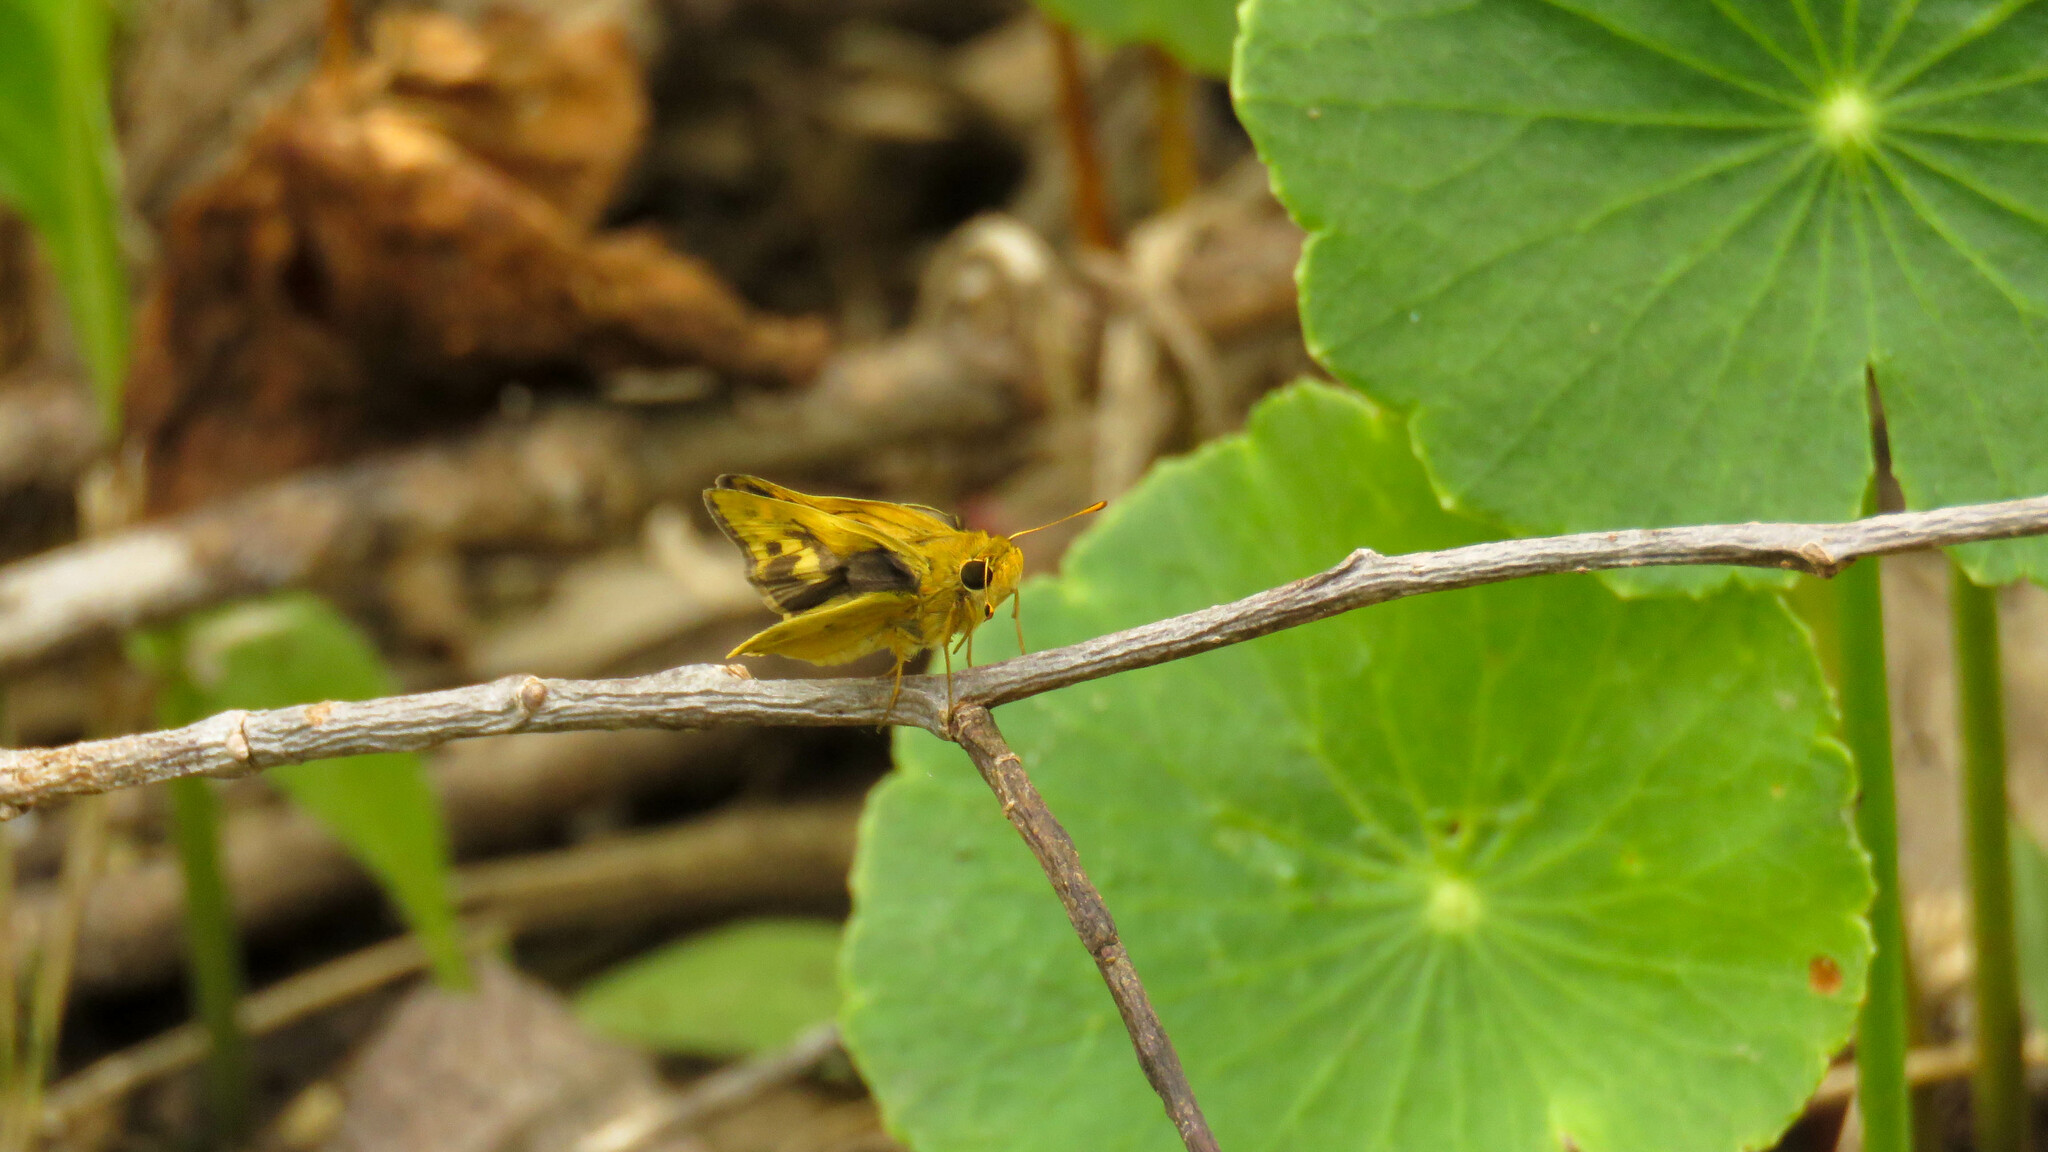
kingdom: Animalia
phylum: Arthropoda
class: Insecta
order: Lepidoptera
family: Hesperiidae
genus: Polites
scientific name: Polites vibex
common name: Whirlabout
